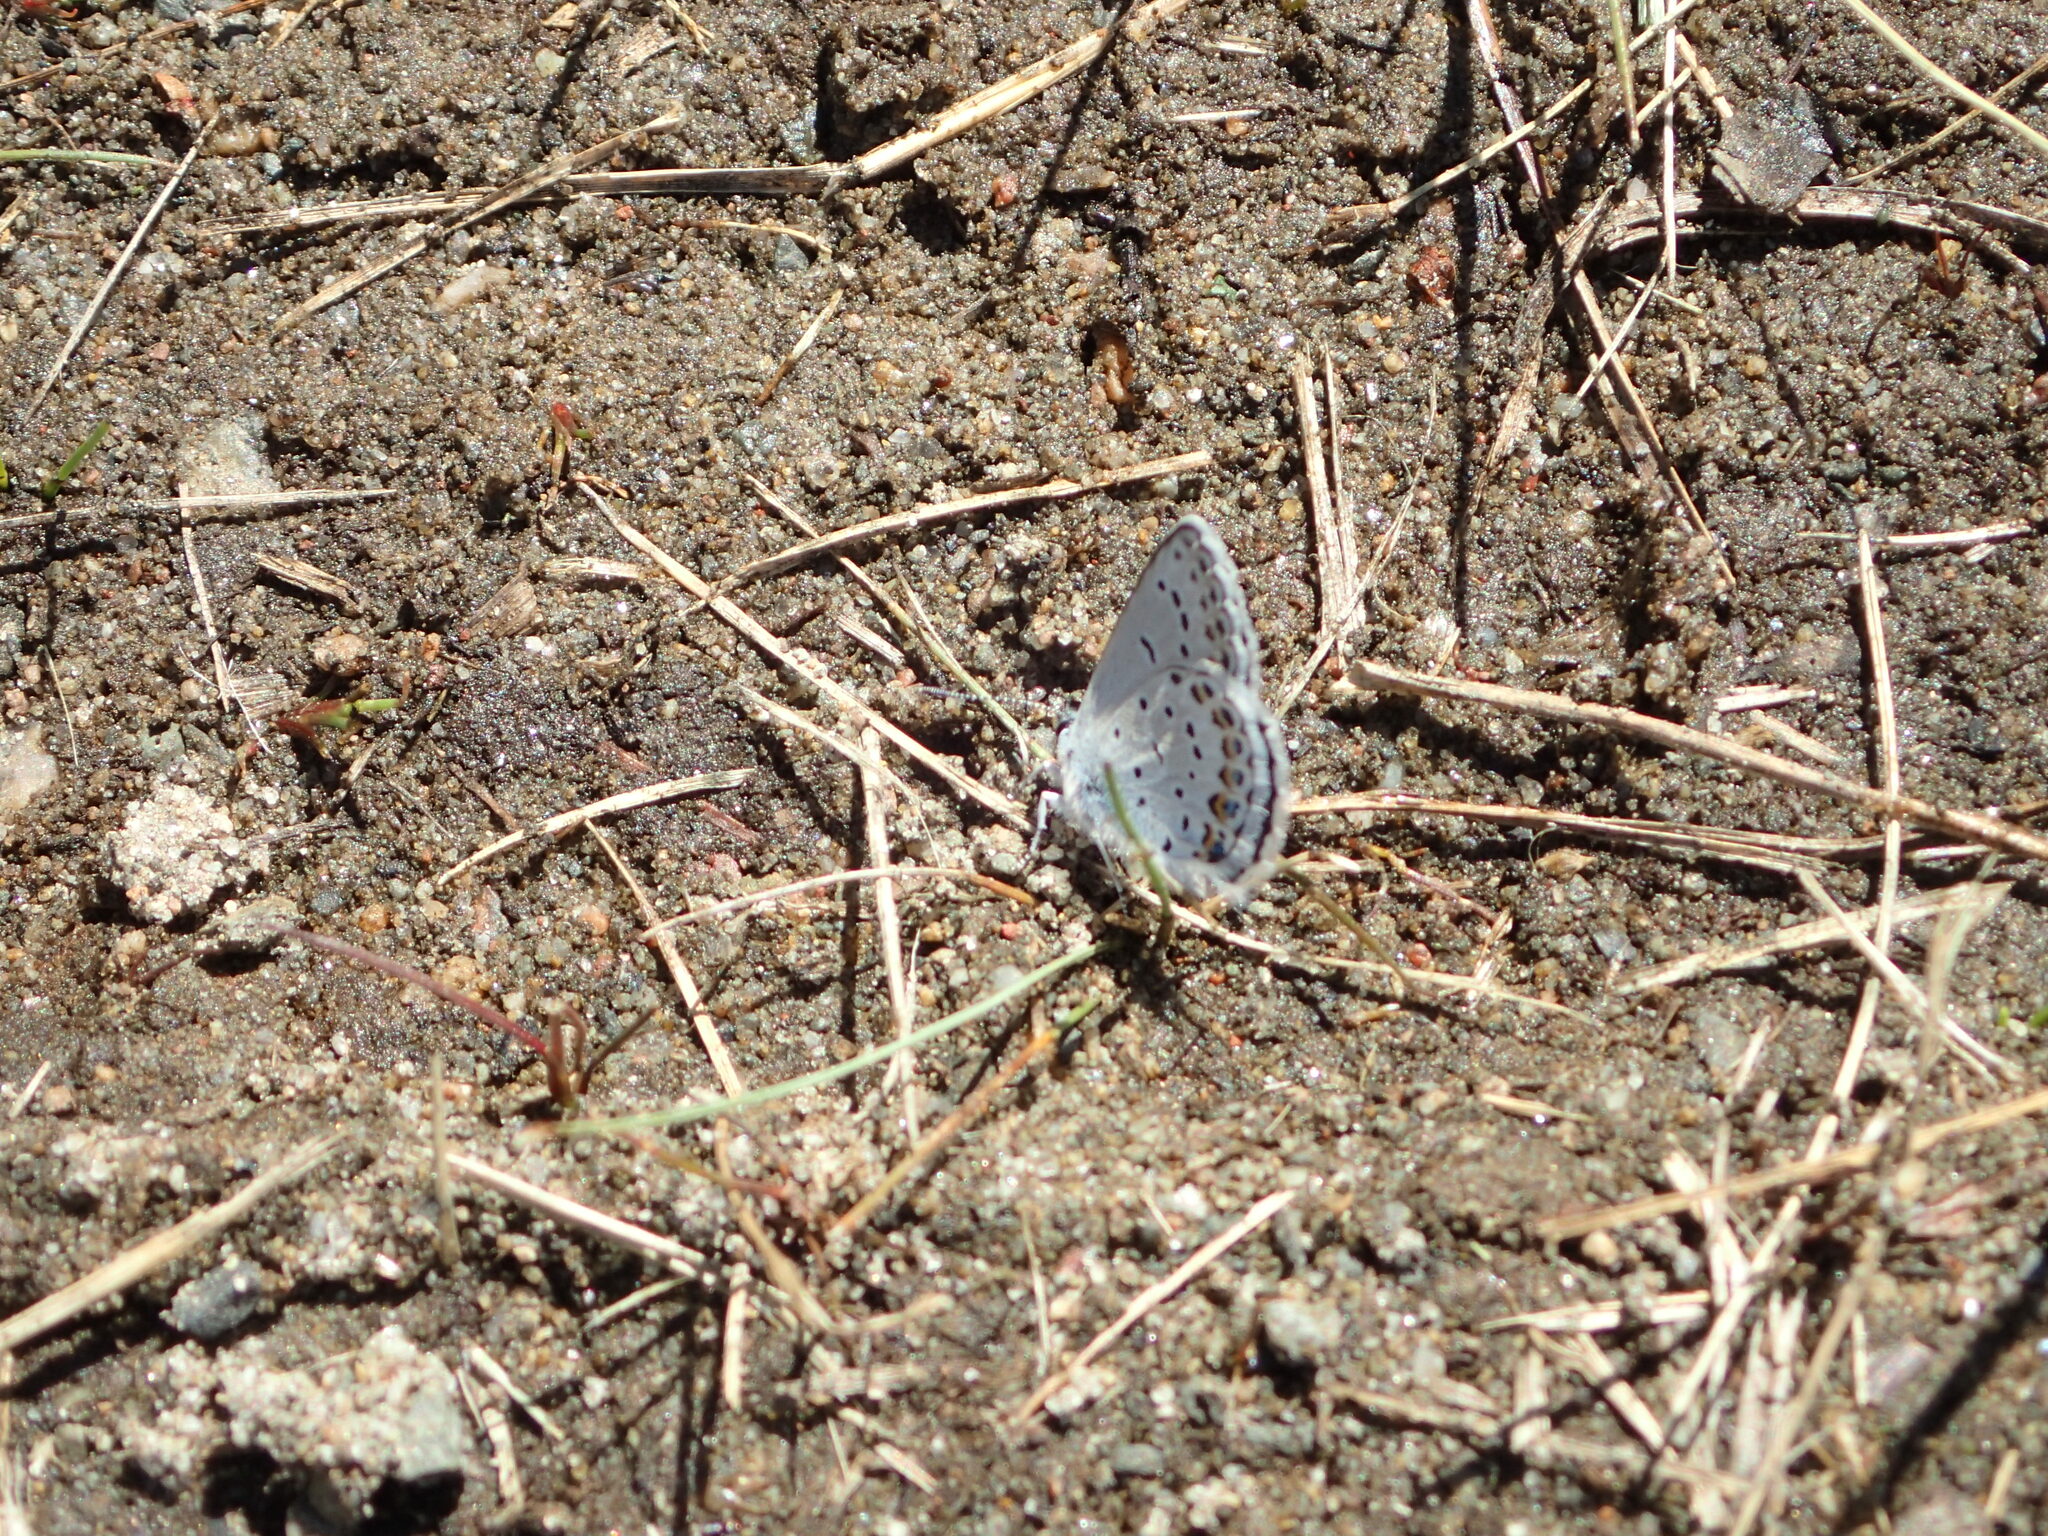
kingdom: Animalia
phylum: Arthropoda
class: Insecta
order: Lepidoptera
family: Lycaenidae
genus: Lycaeides
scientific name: Lycaeides idas
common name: Northern blue
